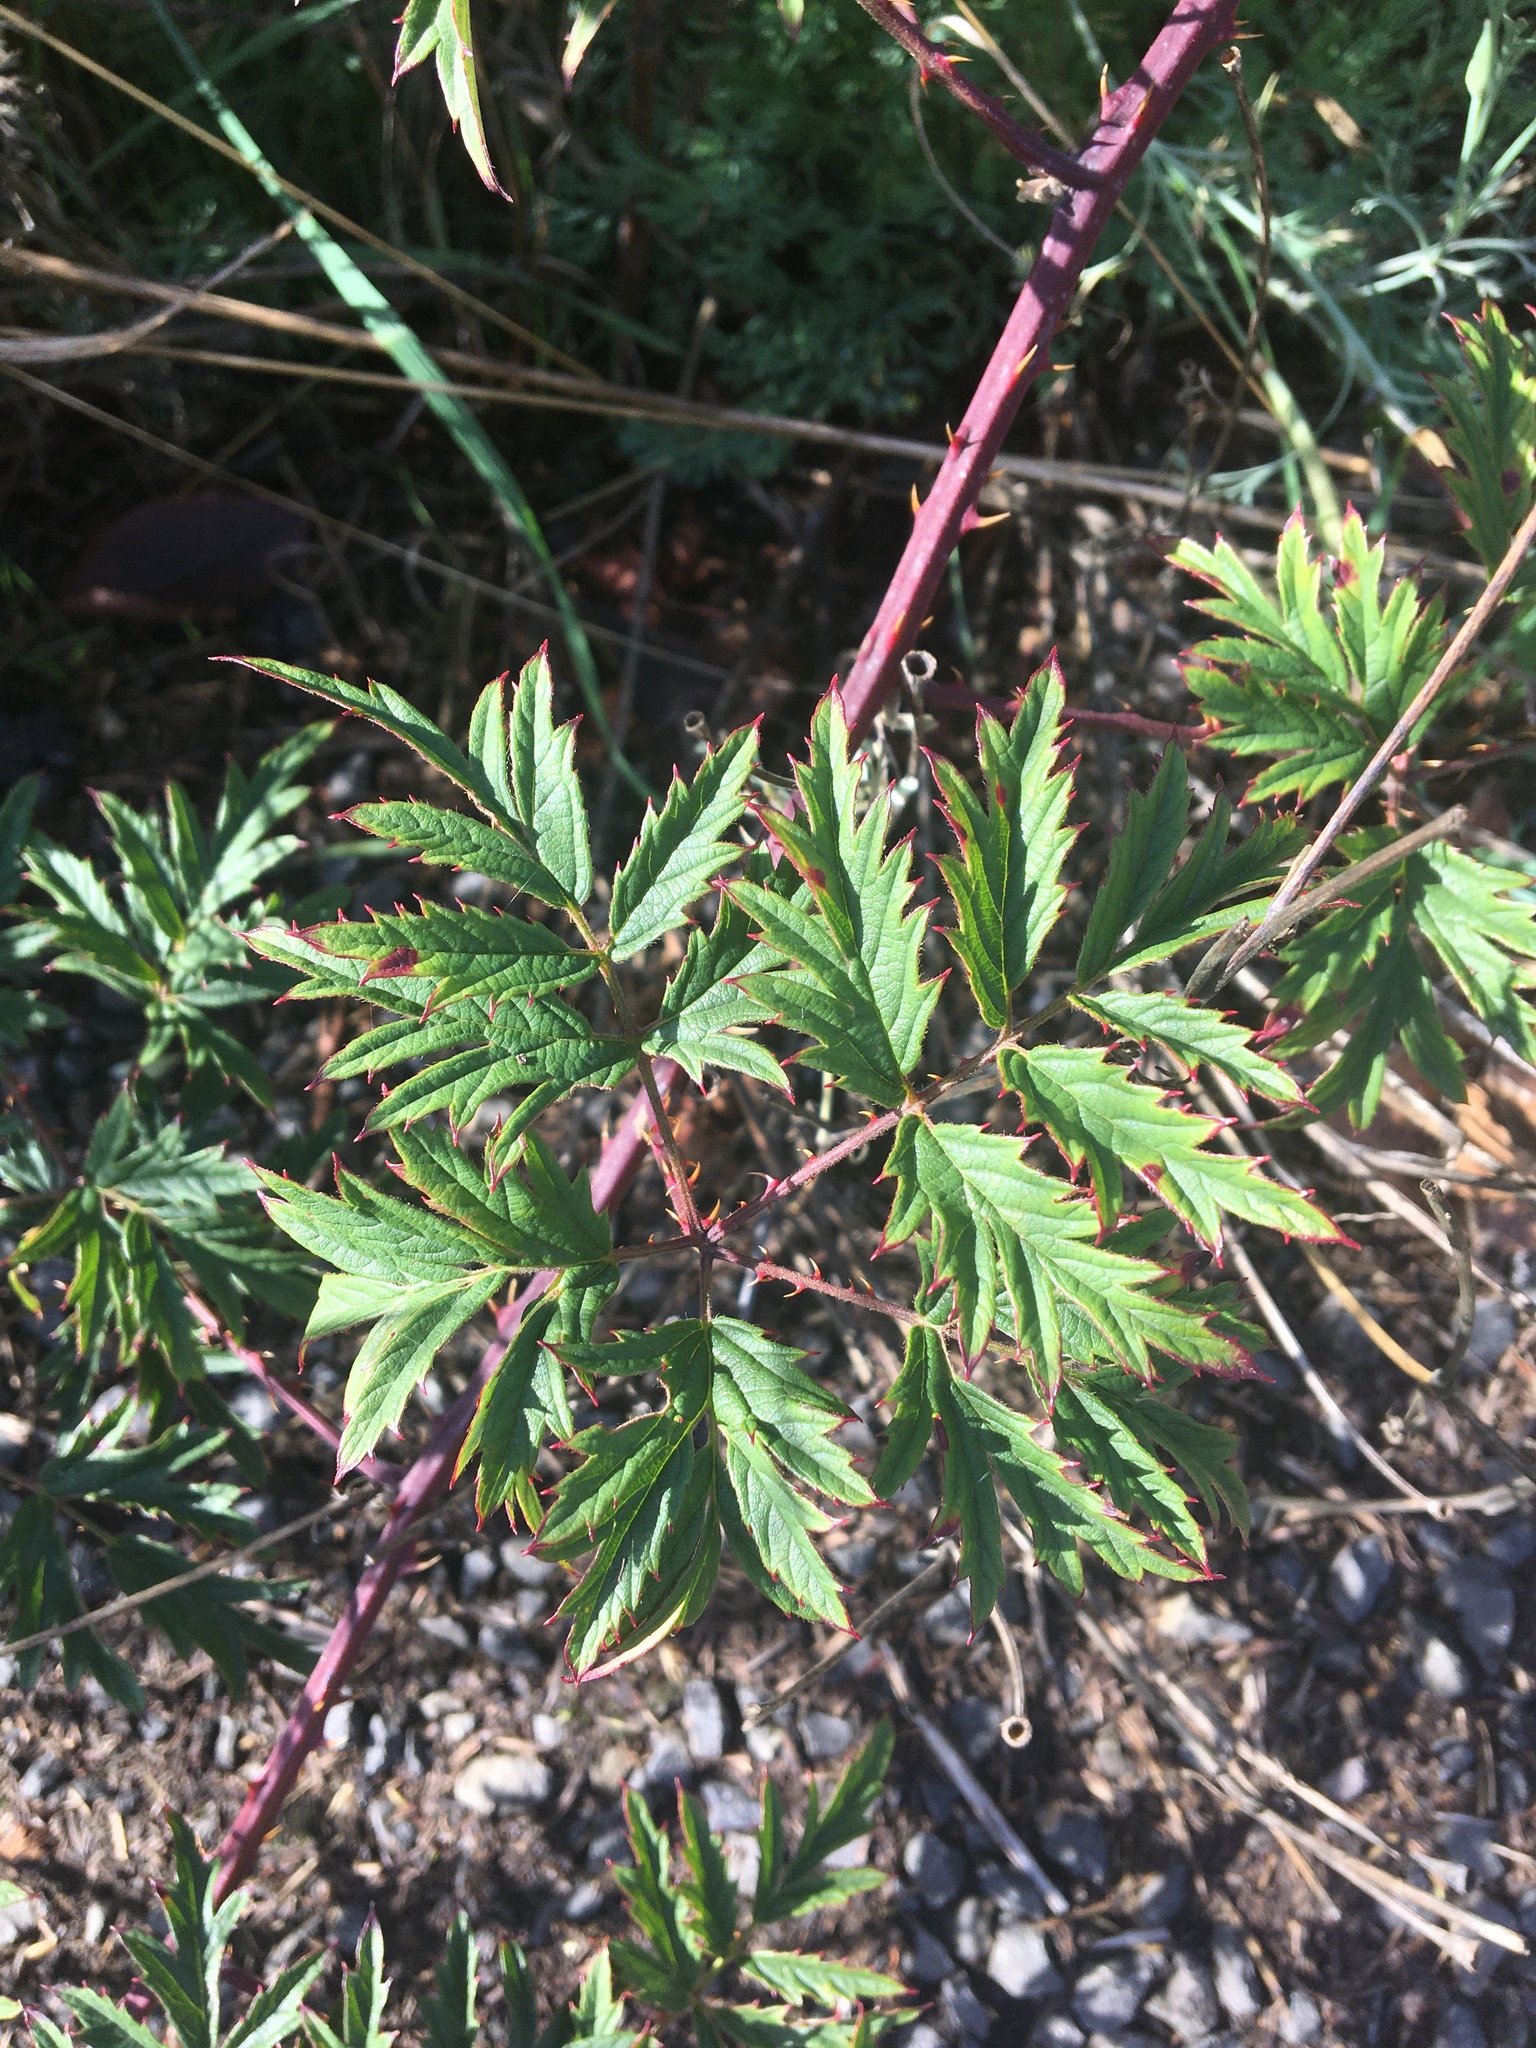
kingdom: Plantae
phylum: Tracheophyta
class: Magnoliopsida
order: Rosales
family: Rosaceae
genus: Rubus
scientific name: Rubus laciniatus
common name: Evergreen blackberry
